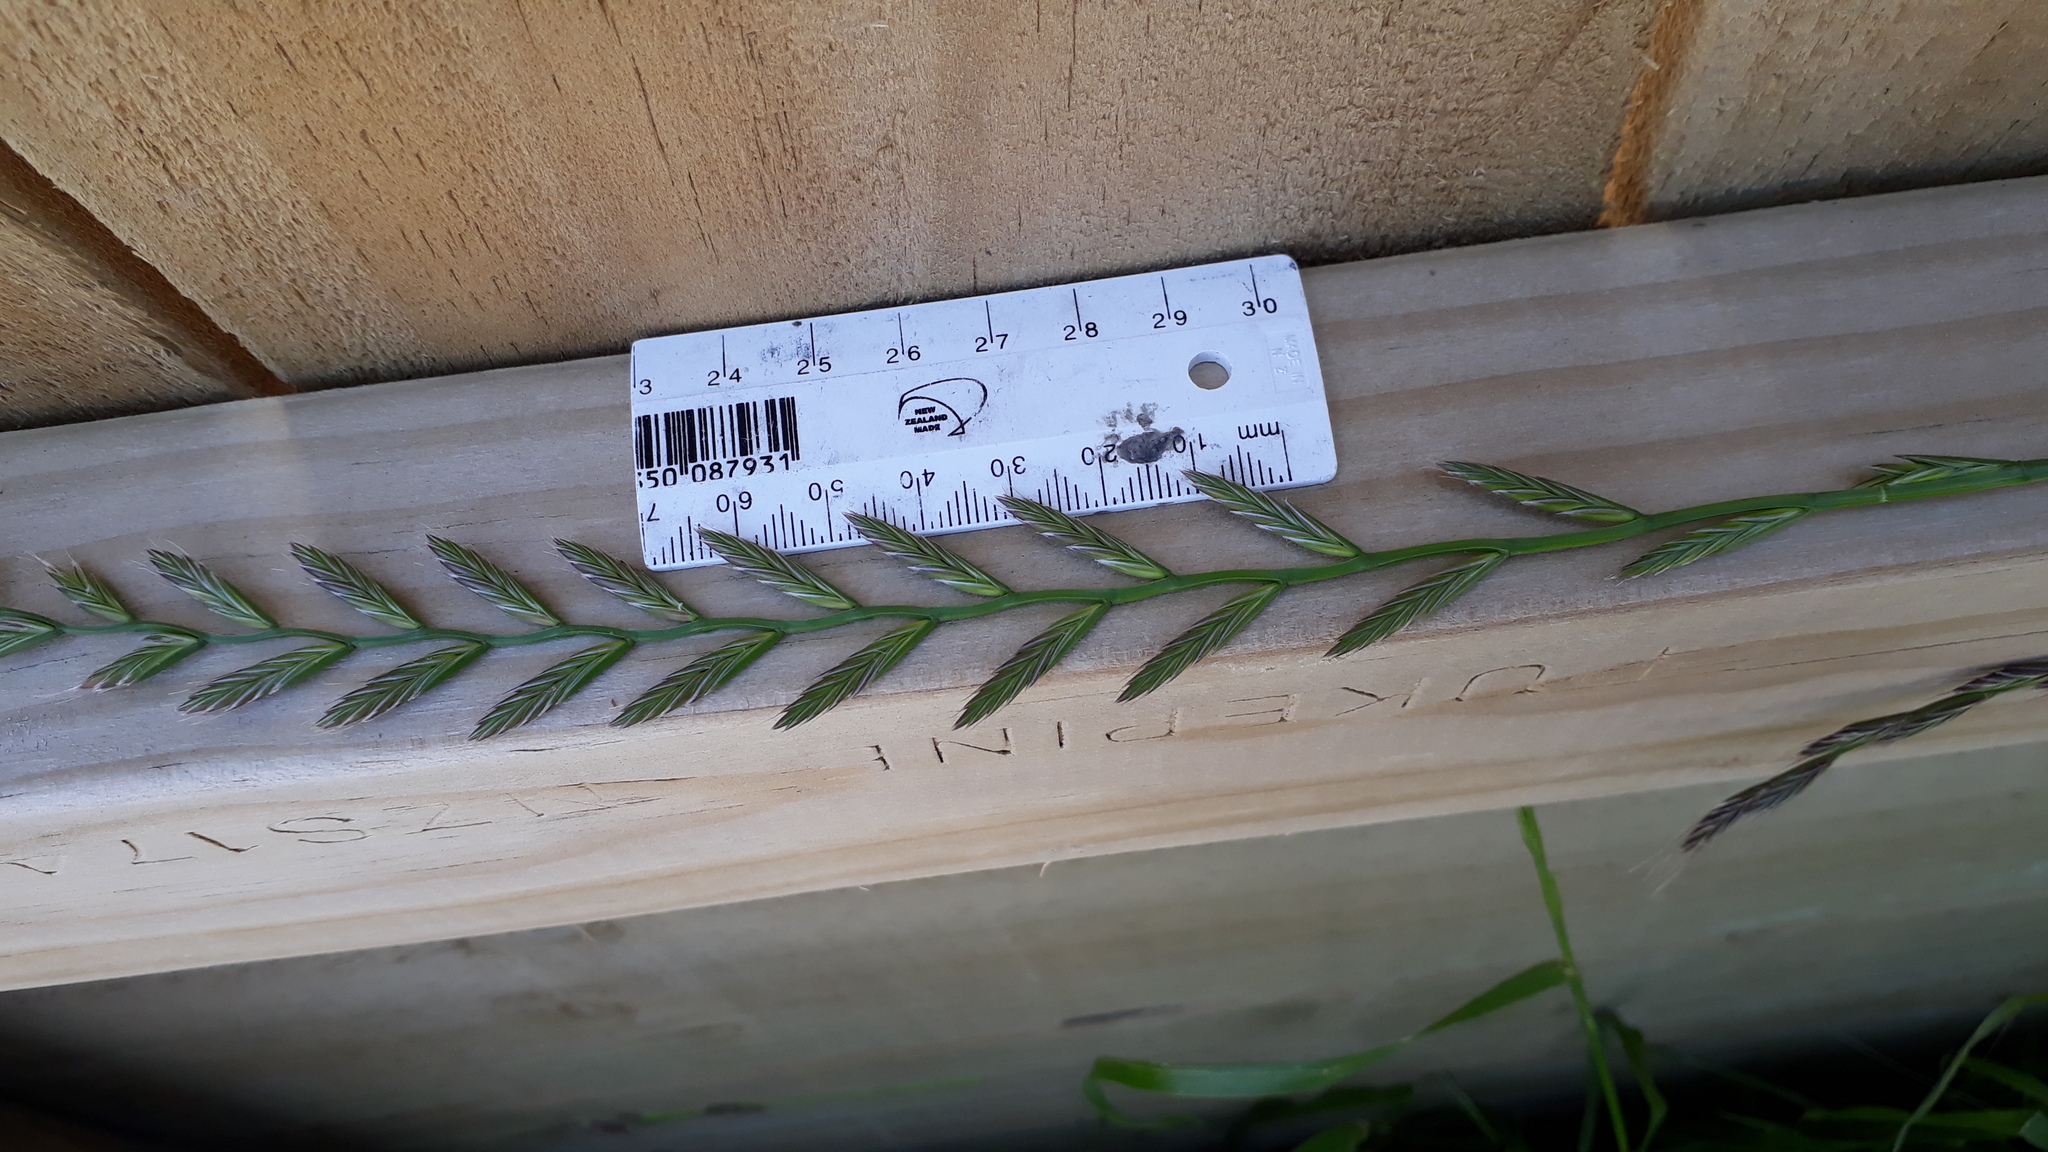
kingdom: Plantae
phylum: Tracheophyta
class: Liliopsida
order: Poales
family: Poaceae
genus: Lolium
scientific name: Lolium multiflorum
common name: Annual ryegrass
